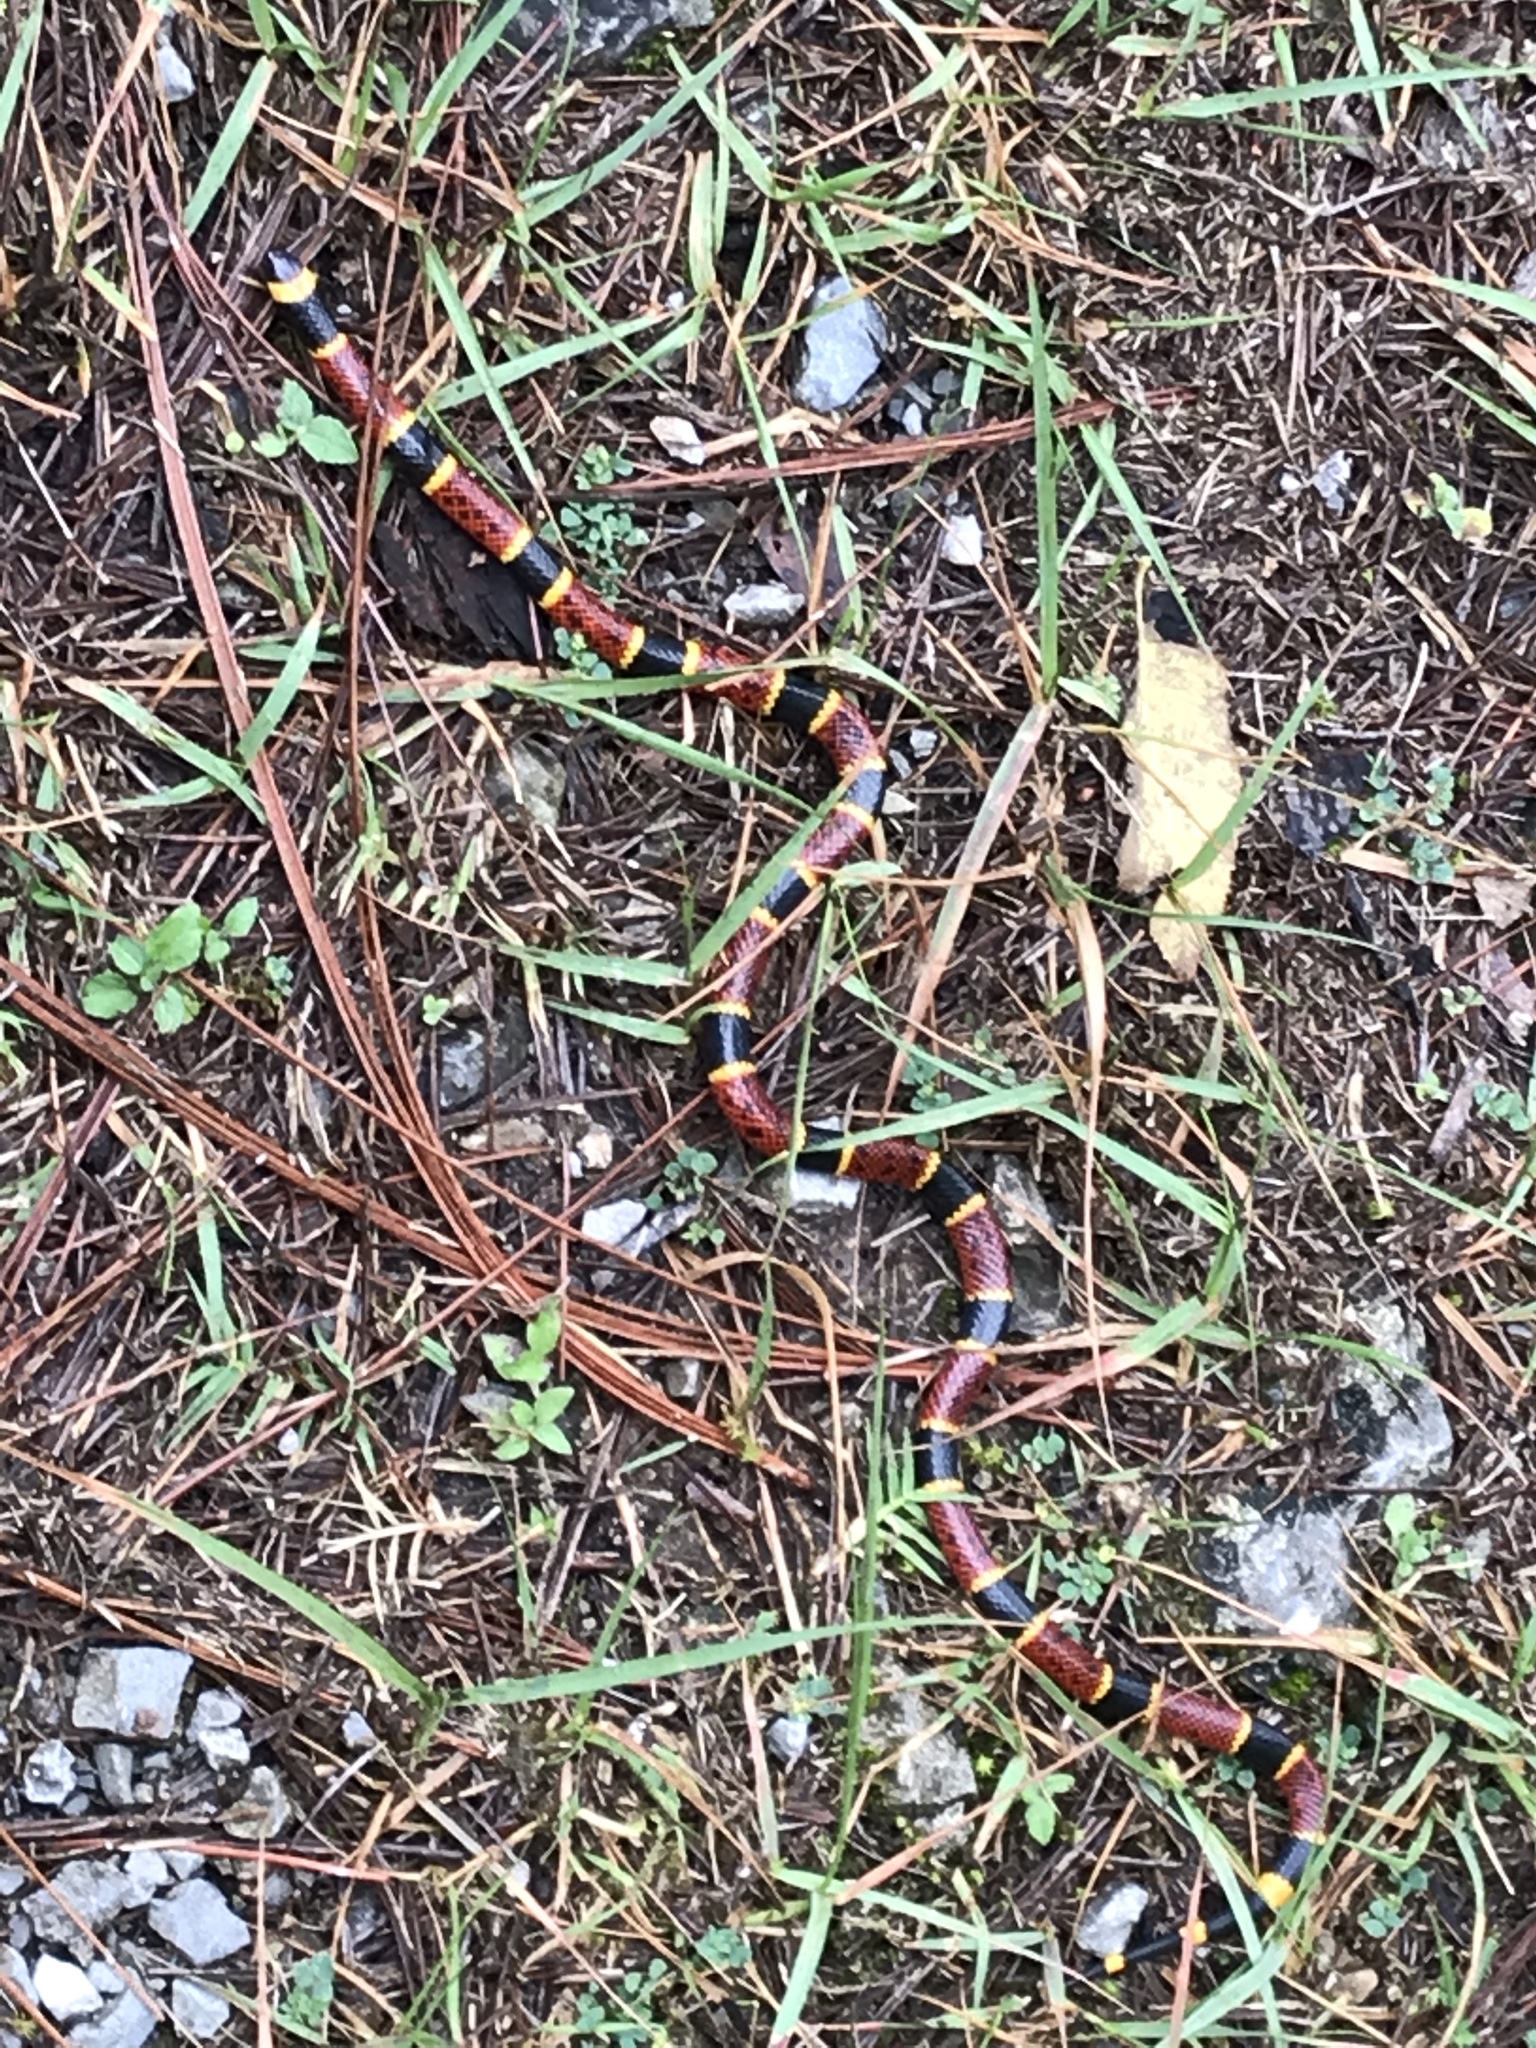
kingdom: Animalia
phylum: Chordata
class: Squamata
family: Elapidae
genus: Micrurus
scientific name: Micrurus tener
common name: Texas coral snake
